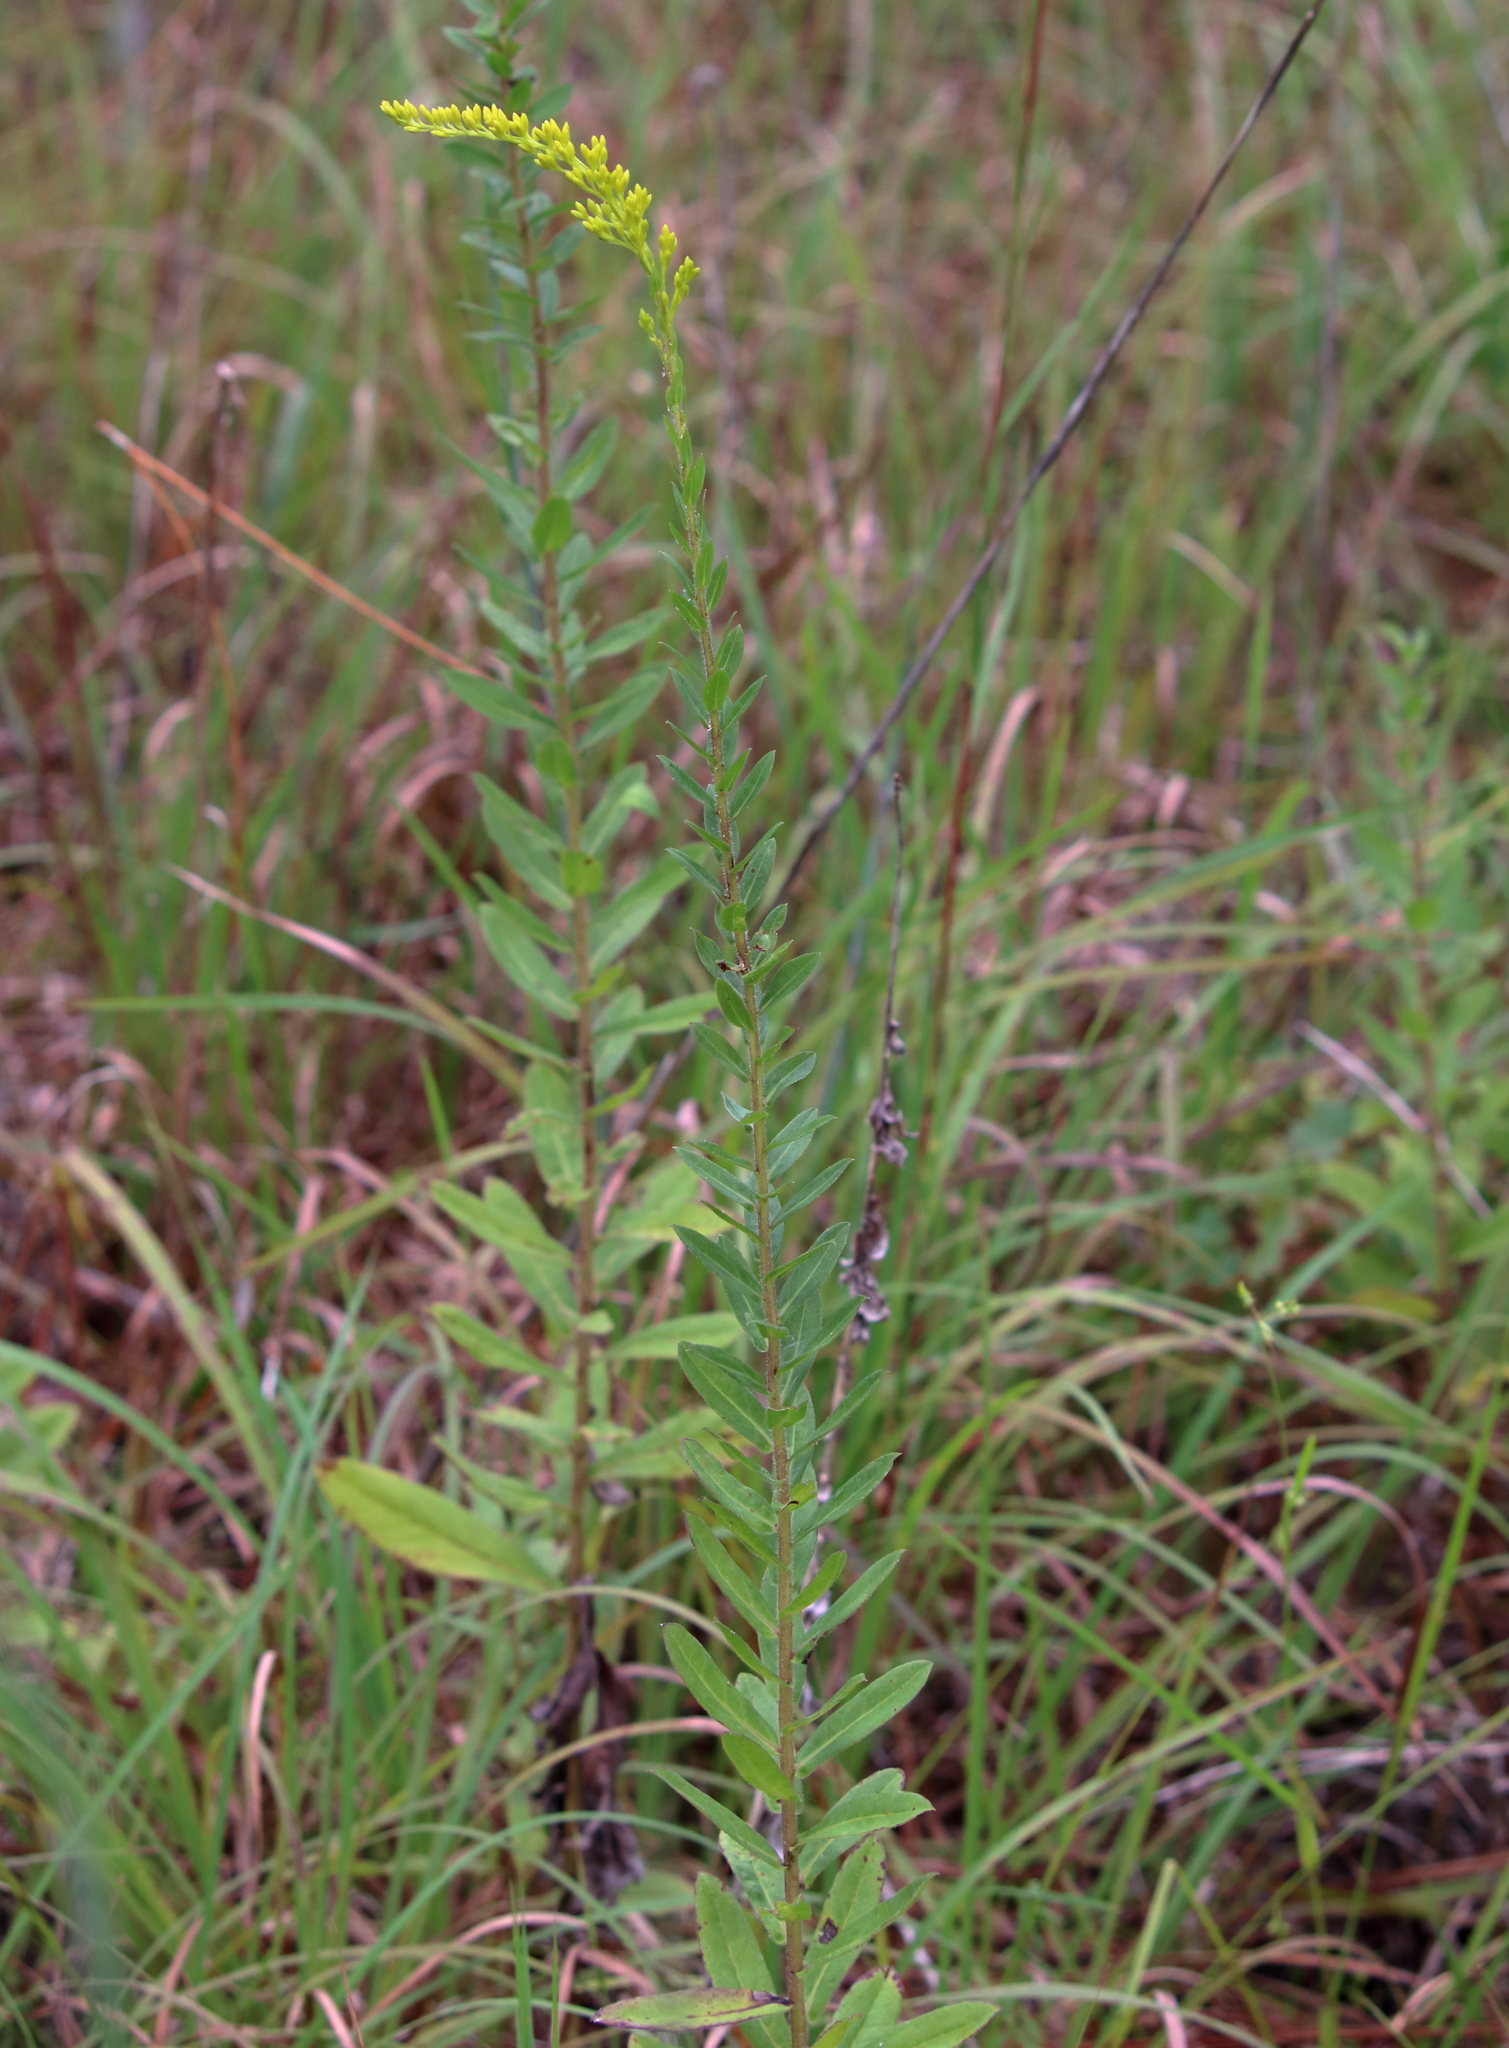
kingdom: Plantae
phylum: Tracheophyta
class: Magnoliopsida
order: Asterales
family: Asteraceae
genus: Solidago
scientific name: Solidago fistulosa
